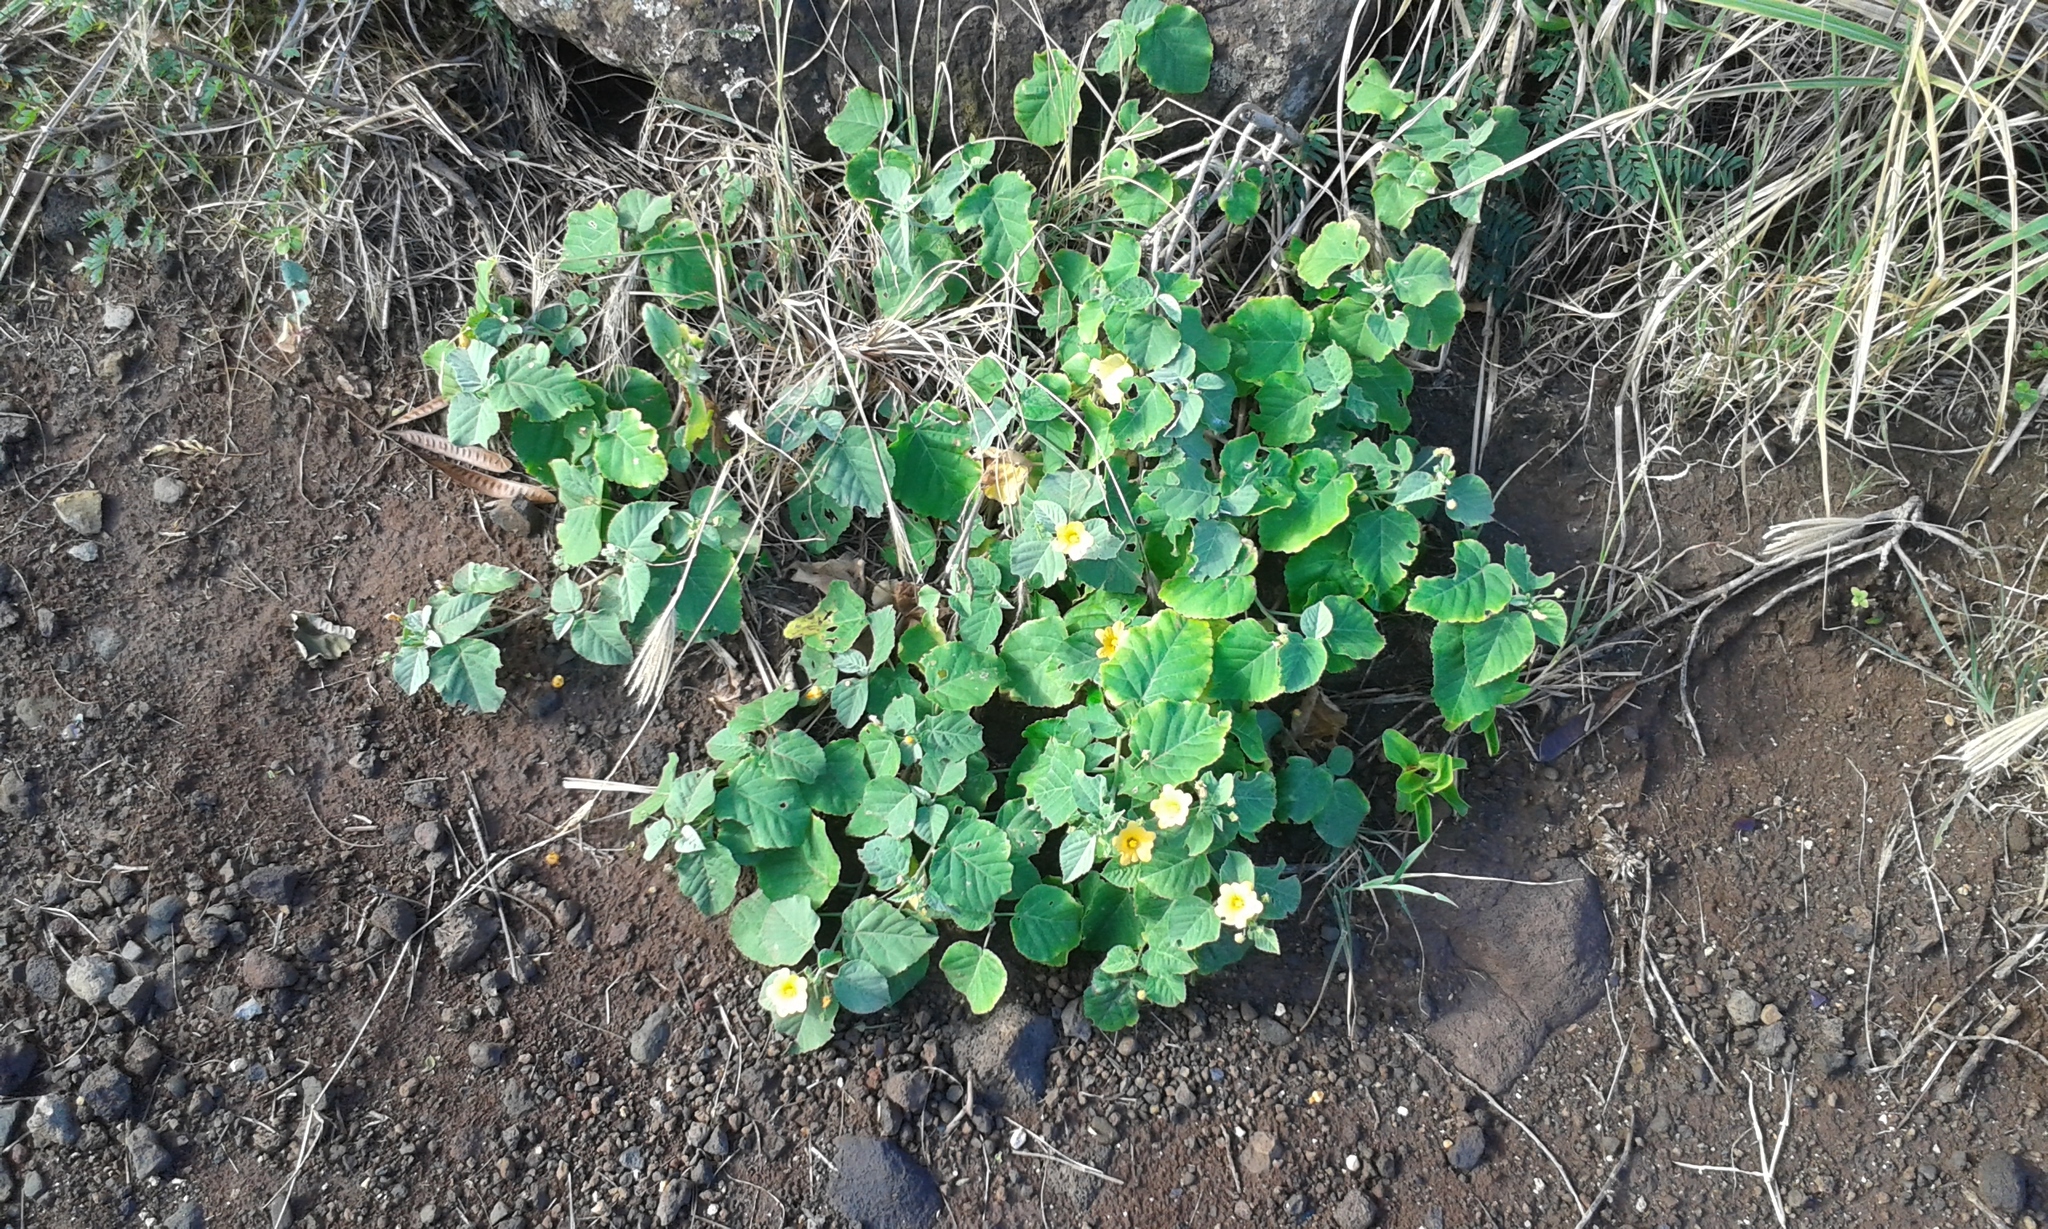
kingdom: Plantae
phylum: Tracheophyta
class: Magnoliopsida
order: Malvales
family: Malvaceae
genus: Sida
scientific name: Sida fallax
